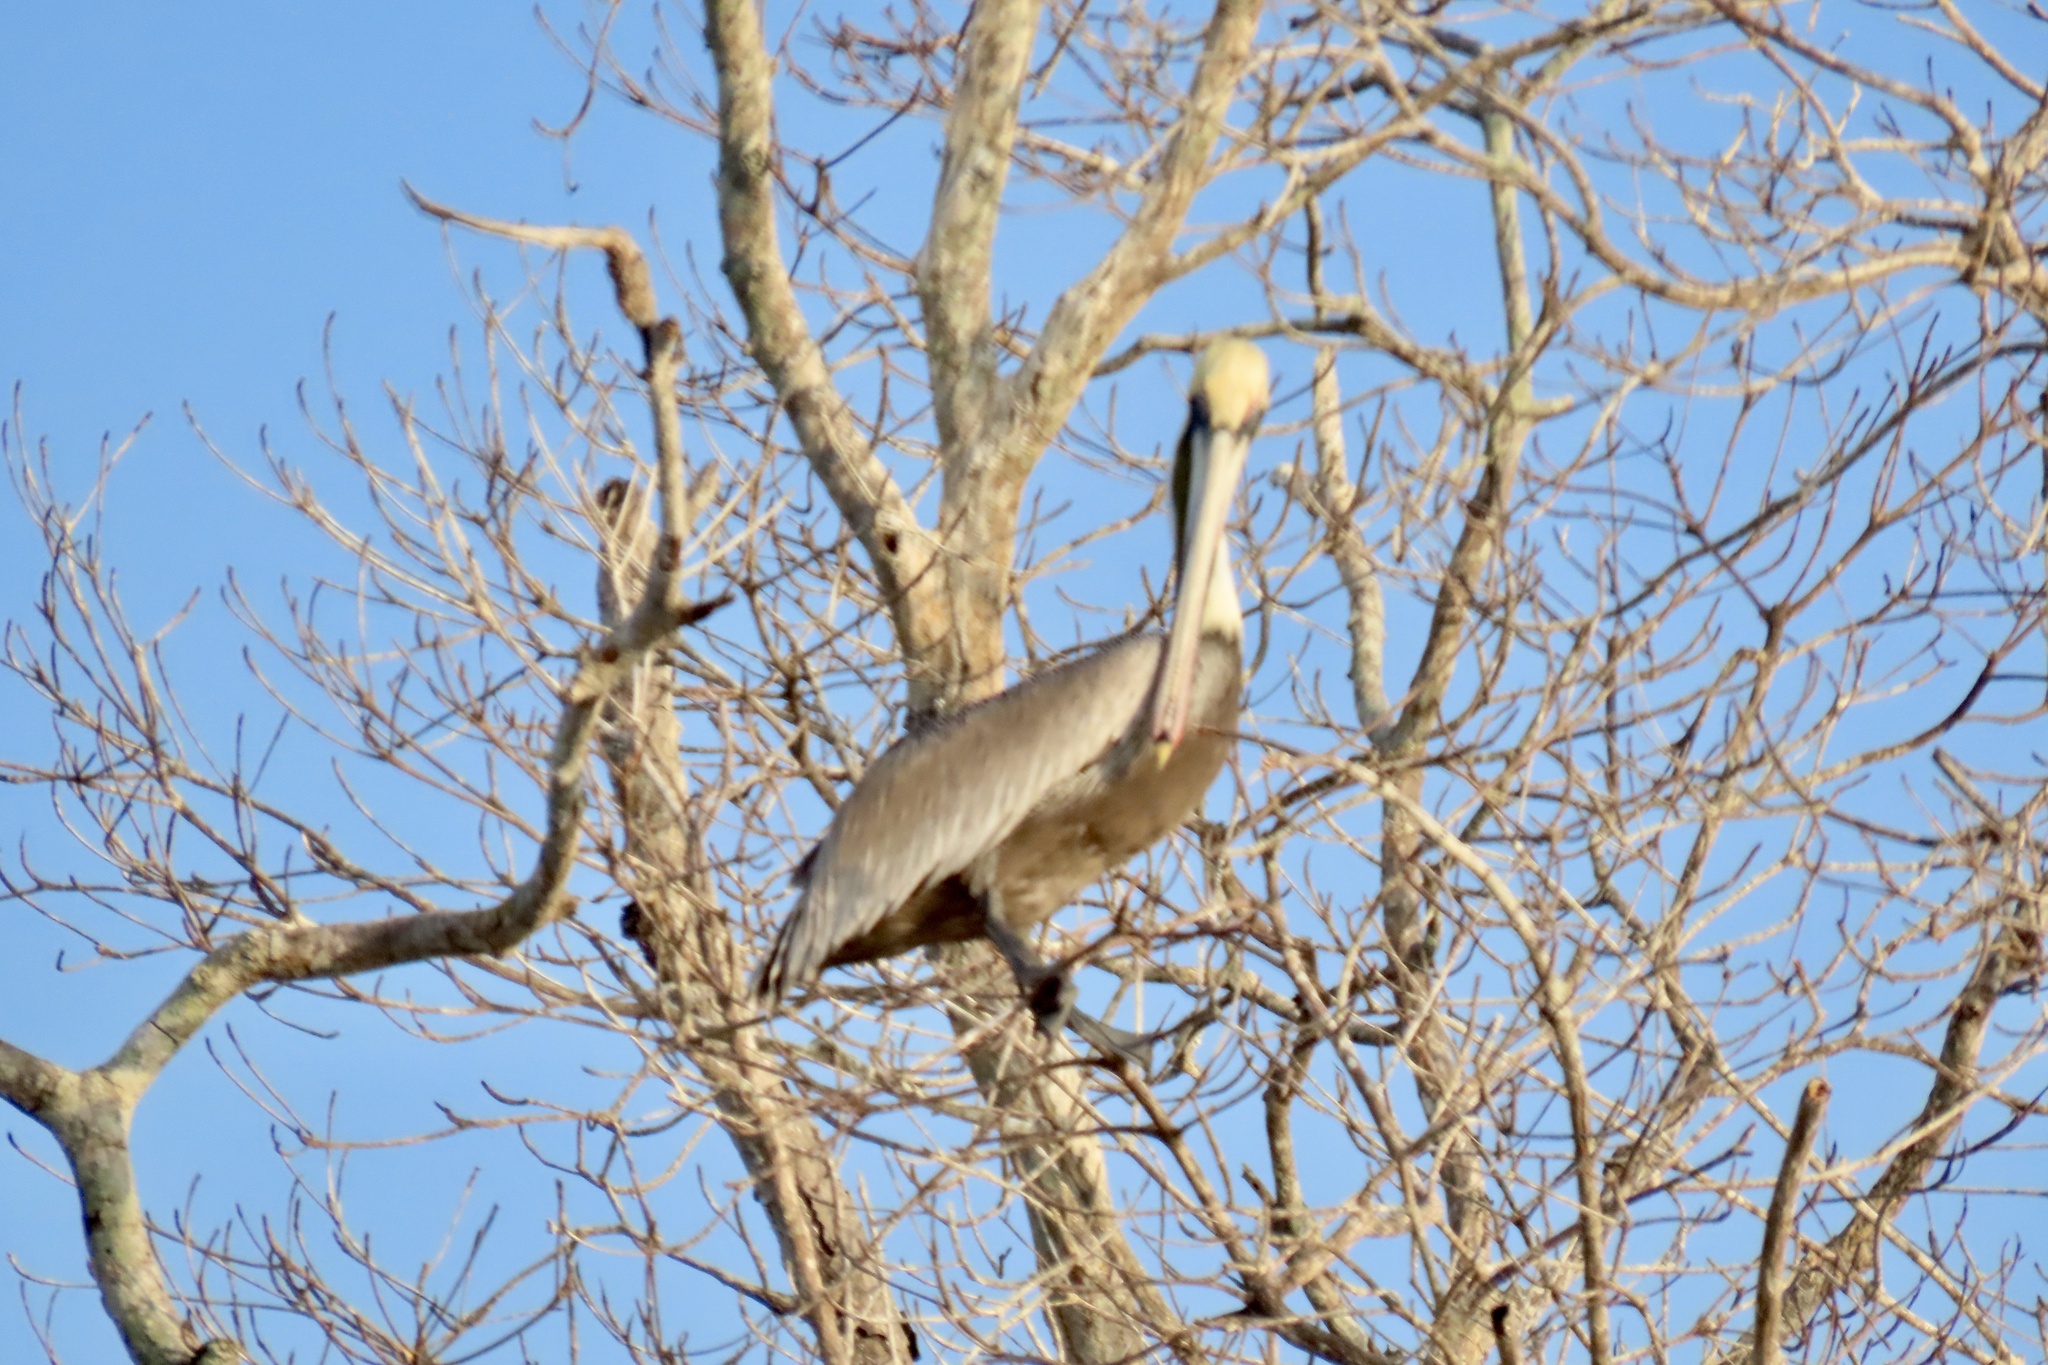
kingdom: Animalia
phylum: Chordata
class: Aves
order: Pelecaniformes
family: Pelecanidae
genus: Pelecanus
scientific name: Pelecanus occidentalis
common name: Brown pelican
